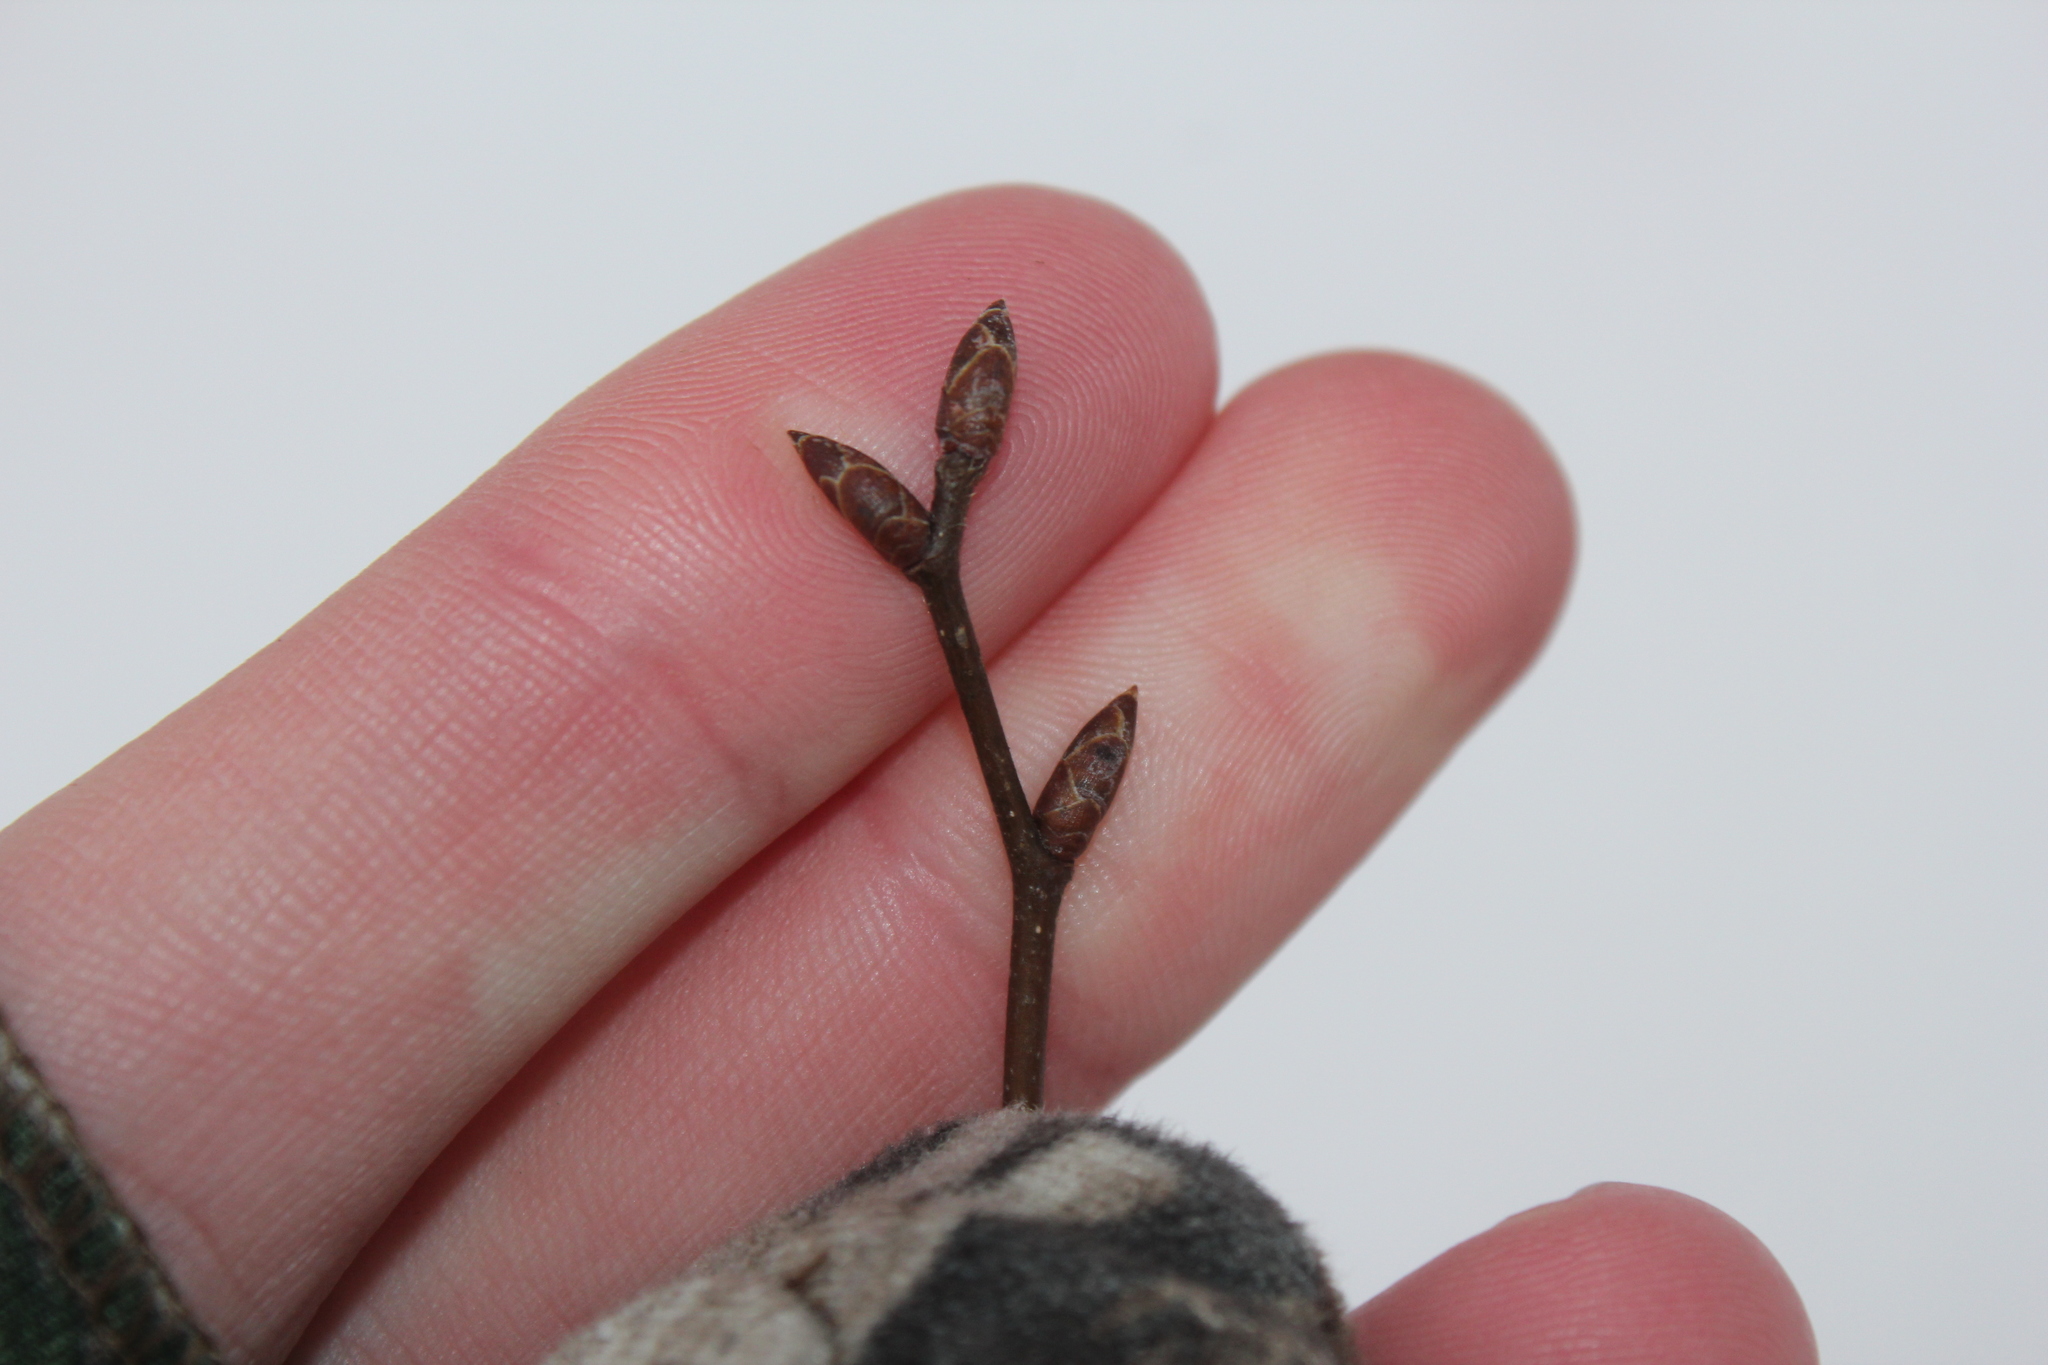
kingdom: Plantae
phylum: Tracheophyta
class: Magnoliopsida
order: Fagales
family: Betulaceae
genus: Ostrya
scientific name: Ostrya virginiana
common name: Ironwood
